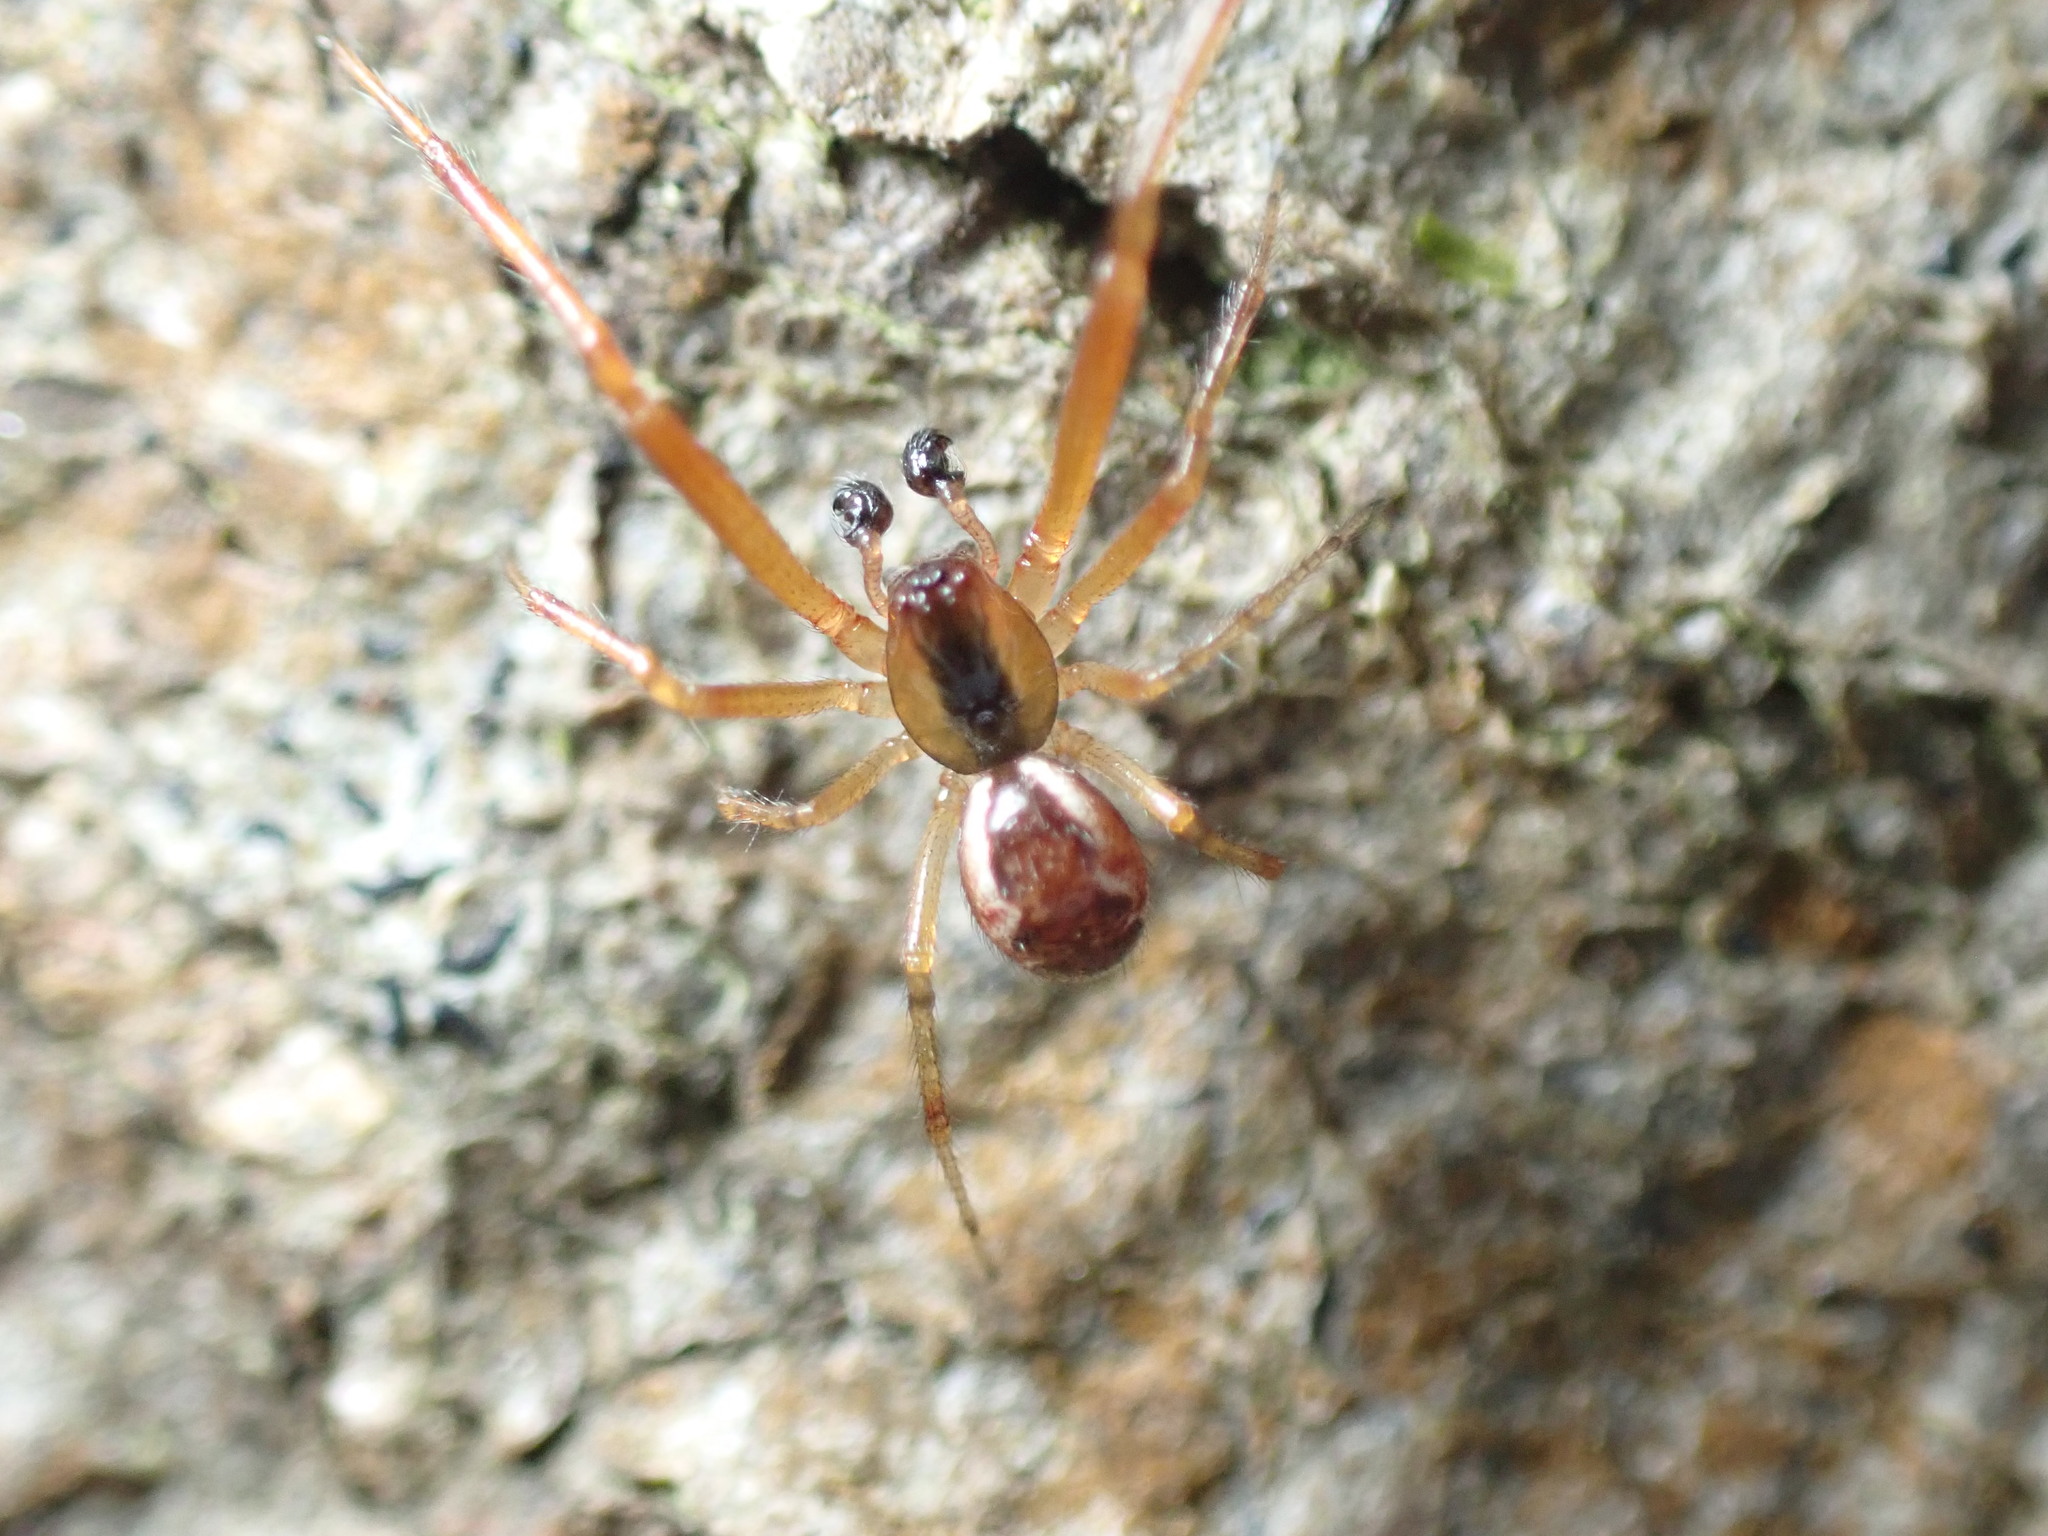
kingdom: Animalia
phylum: Arthropoda
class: Arachnida
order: Araneae
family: Theridiidae
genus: Anelosimus
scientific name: Anelosimus vittatus
